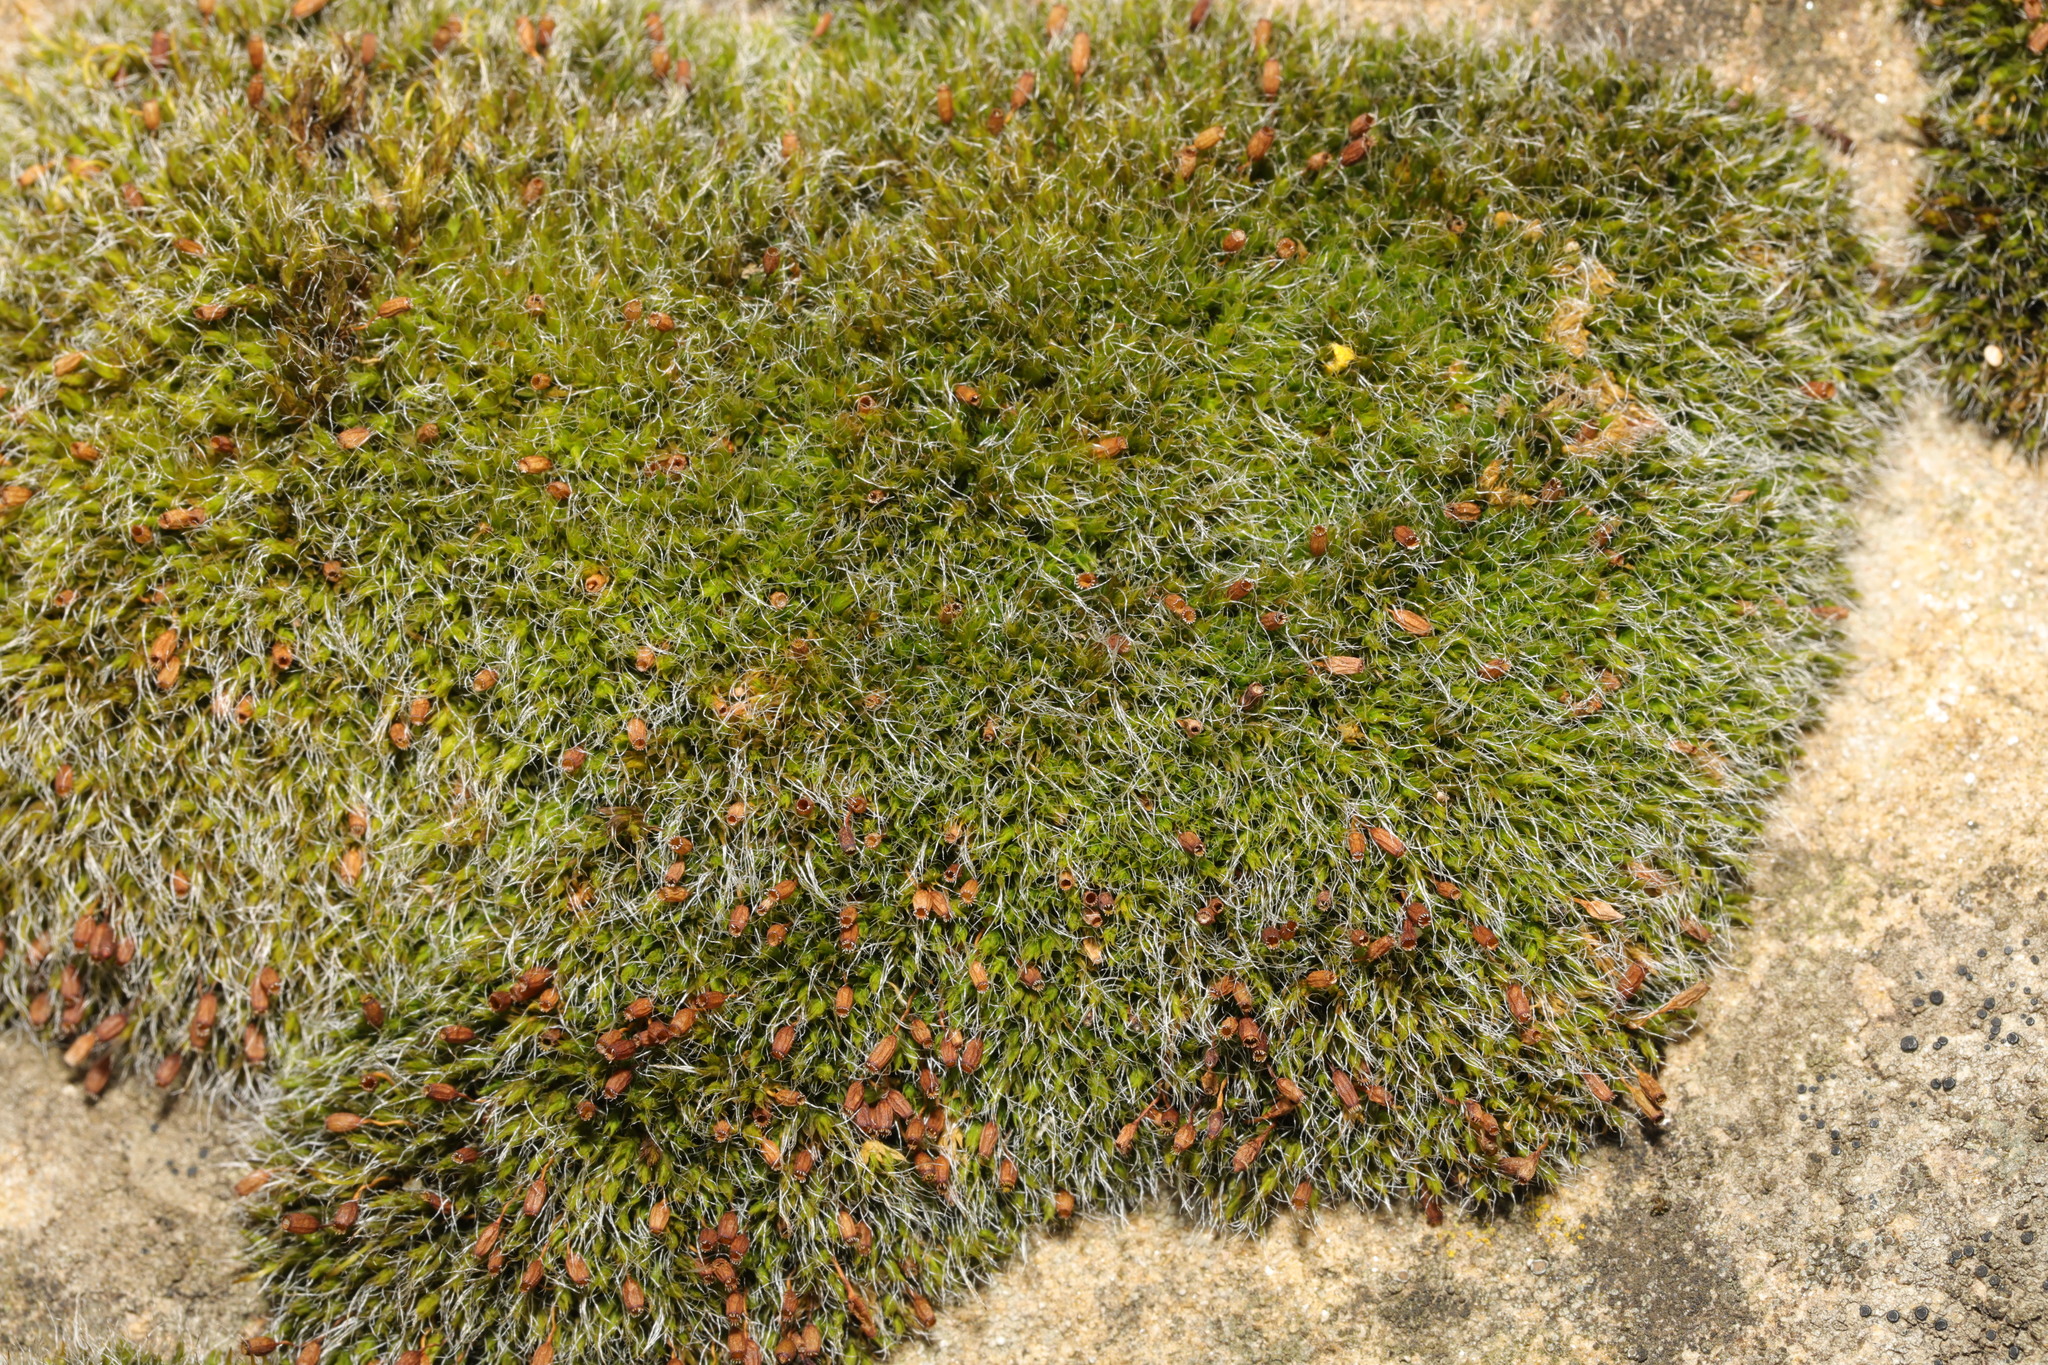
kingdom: Plantae
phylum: Bryophyta
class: Bryopsida
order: Grimmiales
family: Grimmiaceae
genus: Grimmia
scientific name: Grimmia pulvinata
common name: Grey-cushioned grimmia
